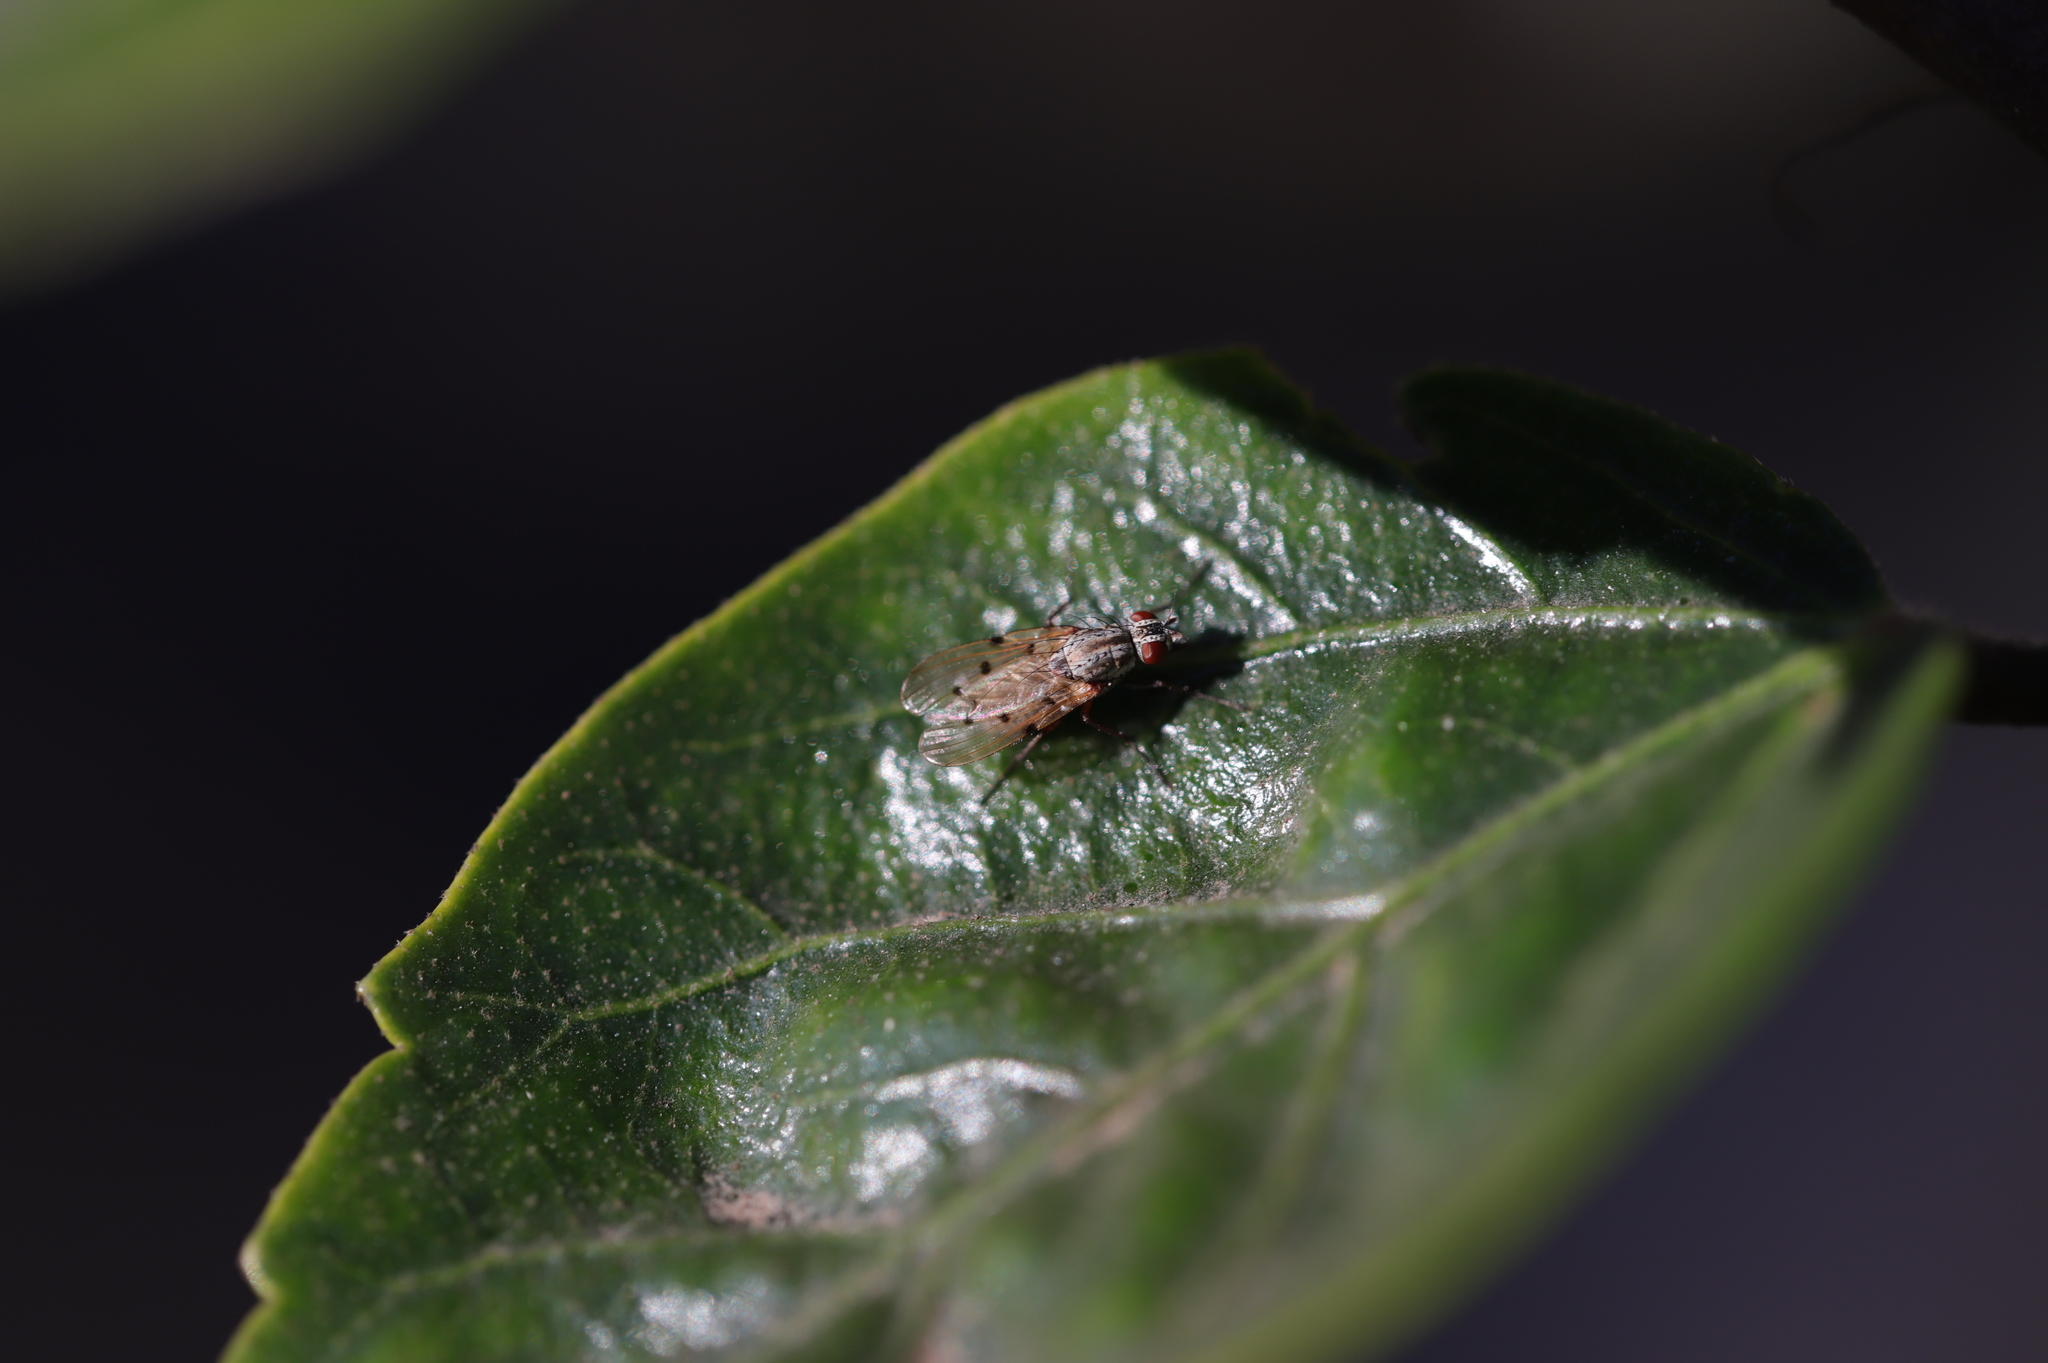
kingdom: Animalia
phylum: Arthropoda
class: Insecta
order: Diptera
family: Anthomyiidae
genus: Anthomyia
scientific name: Anthomyia punctipennis
